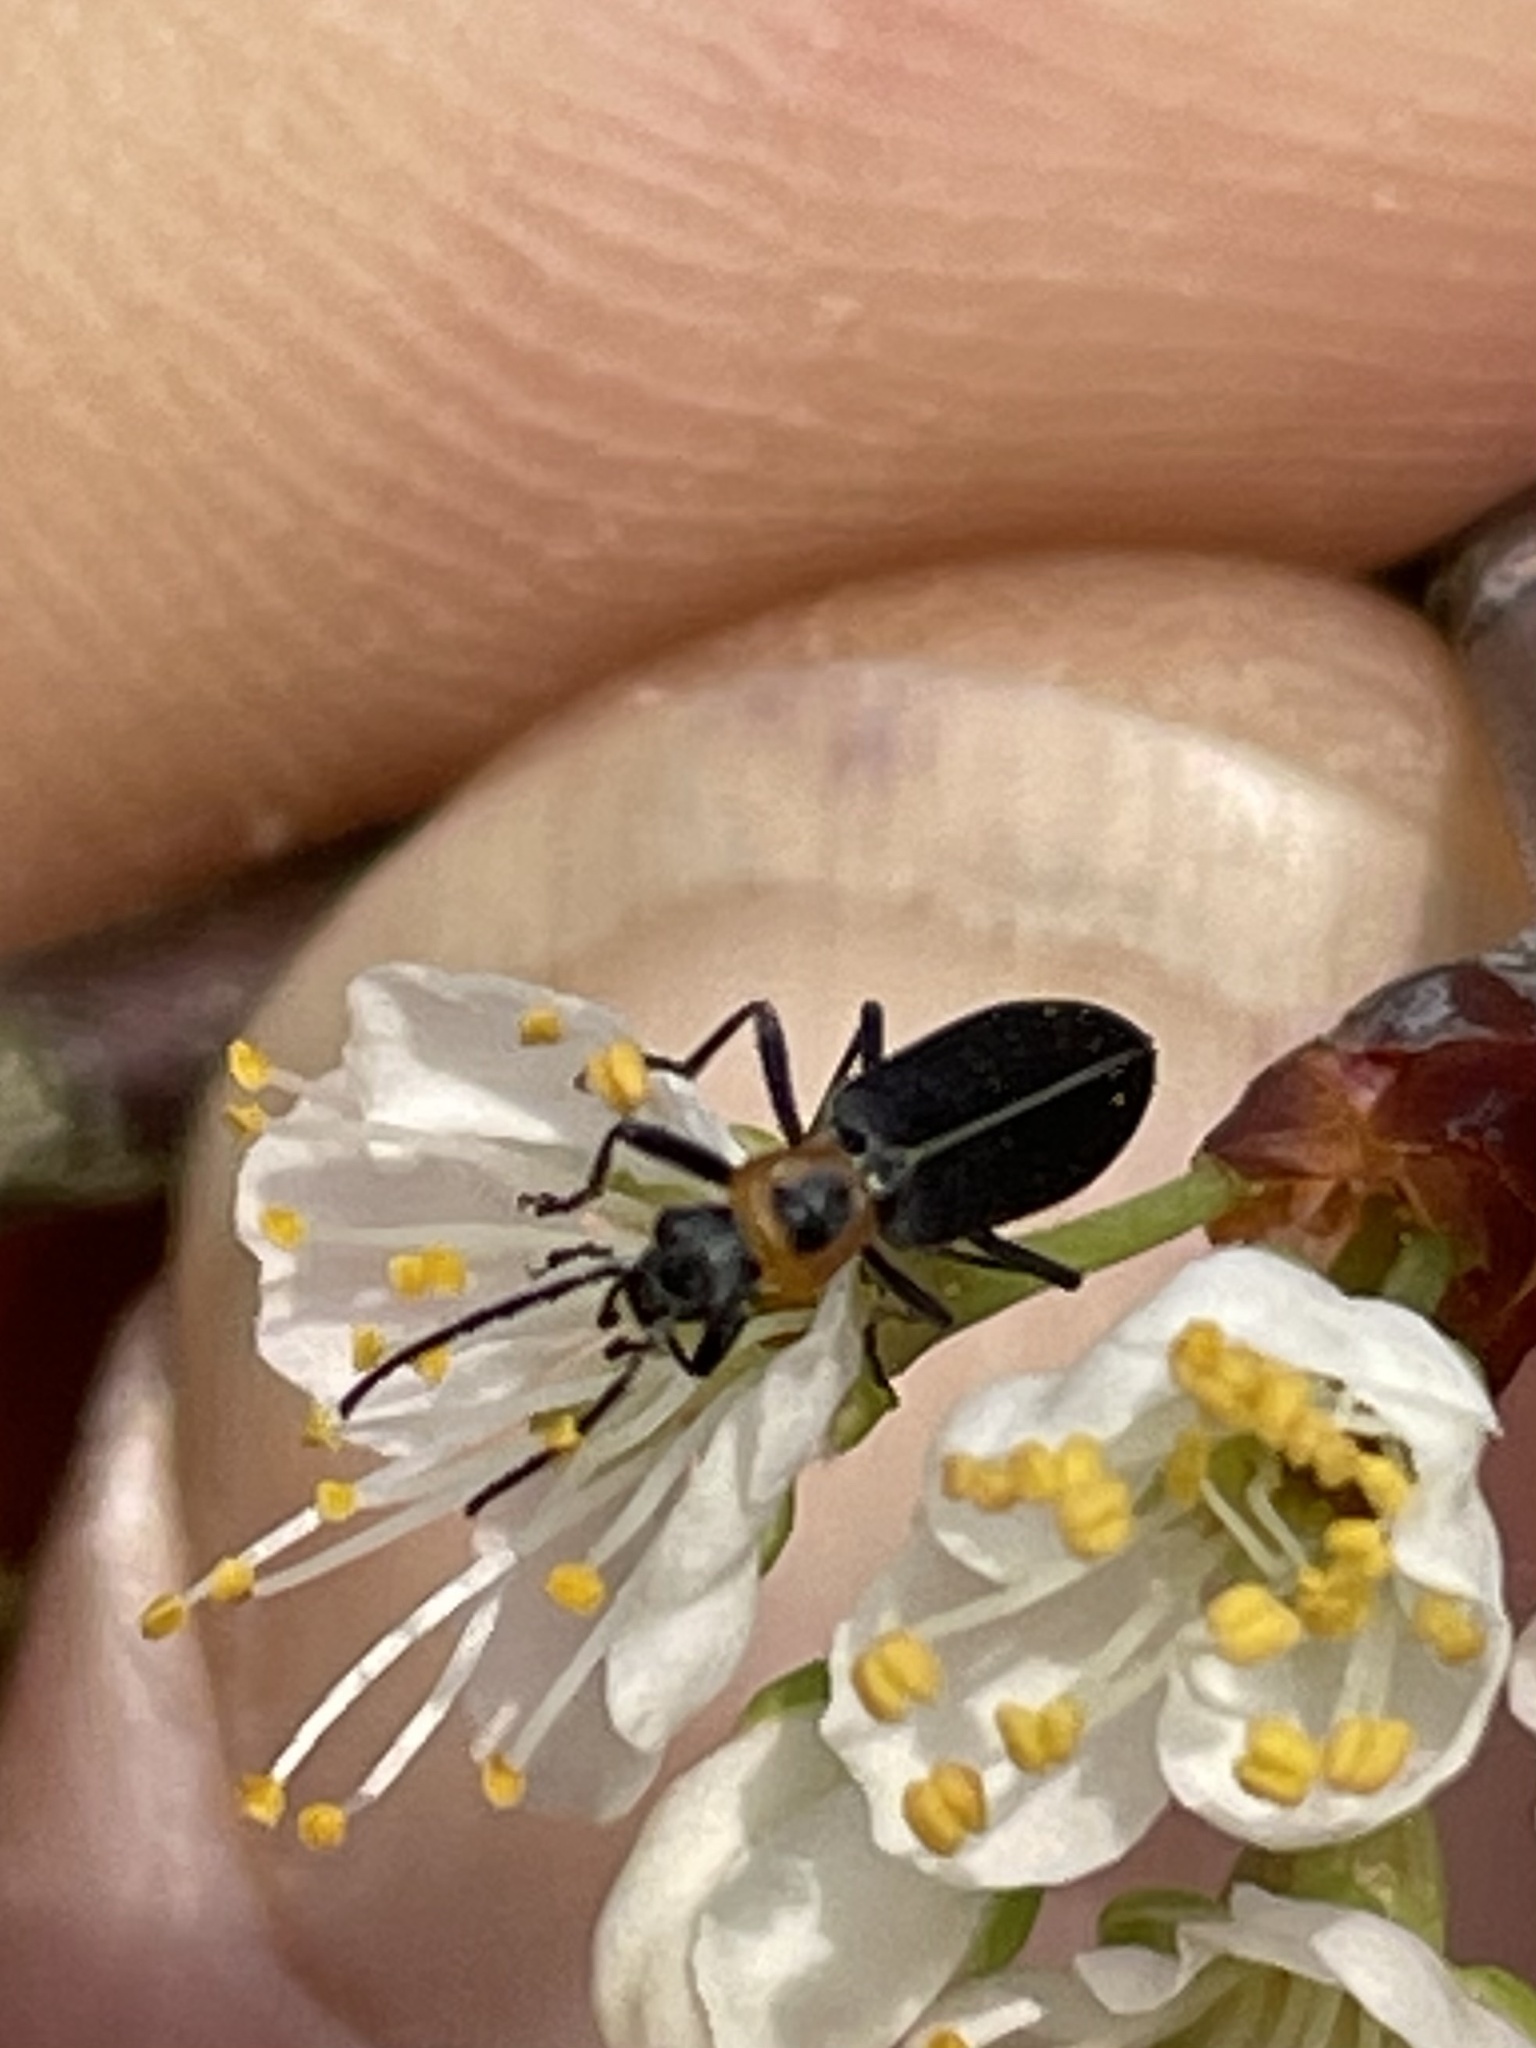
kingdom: Animalia
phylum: Arthropoda
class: Insecta
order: Coleoptera
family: Oedemeridae
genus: Ischnomera
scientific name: Ischnomera
